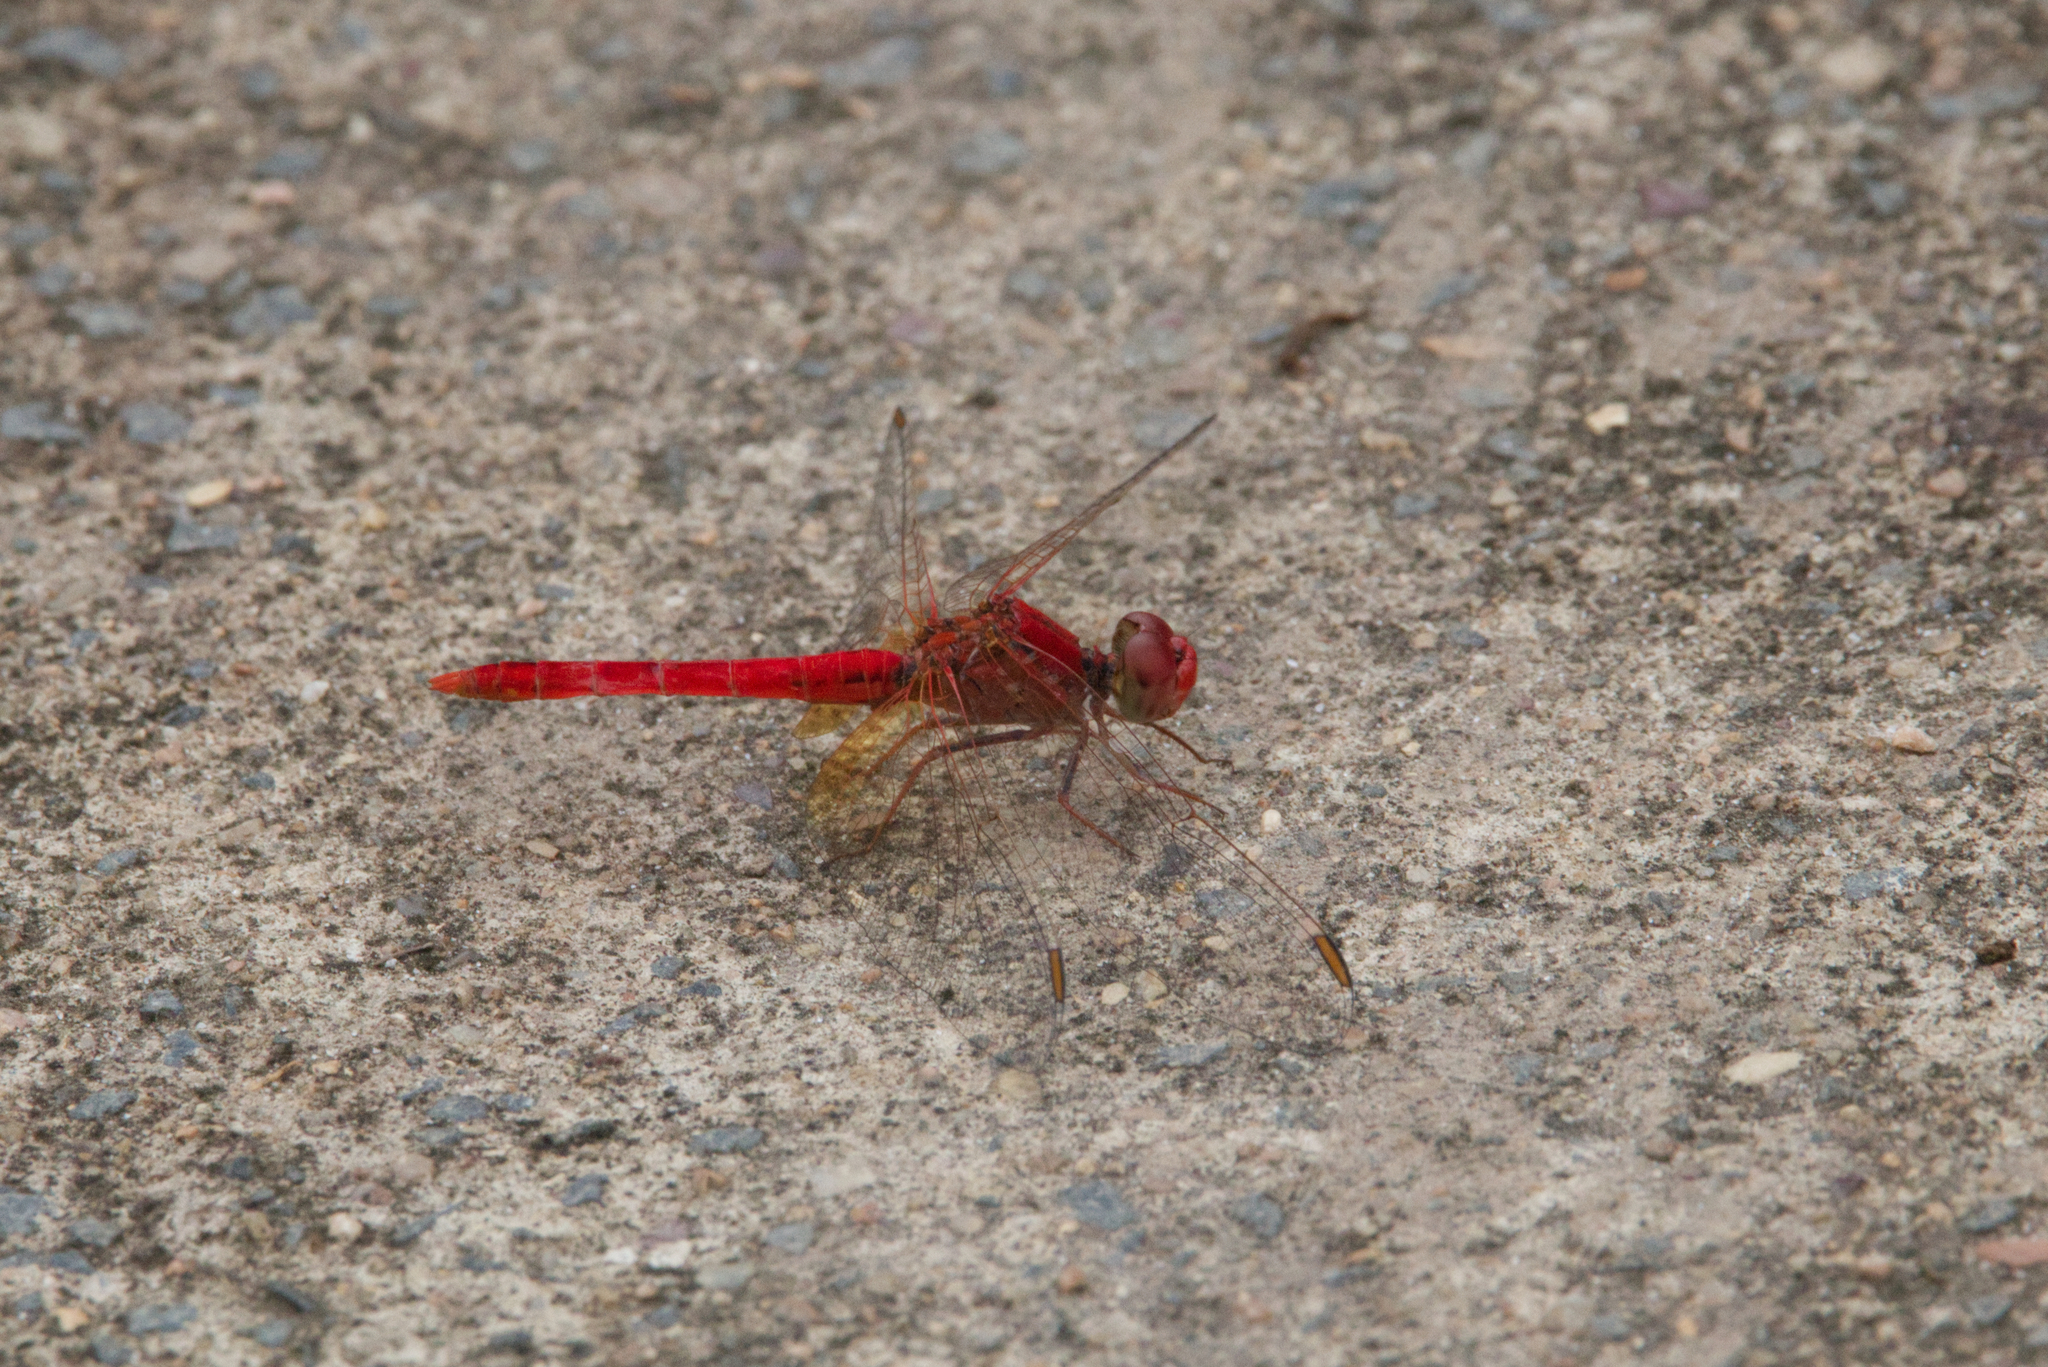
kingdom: Animalia
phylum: Arthropoda
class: Insecta
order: Odonata
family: Libellulidae
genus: Diplacodes
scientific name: Diplacodes haematodes
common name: Scarlet percher
